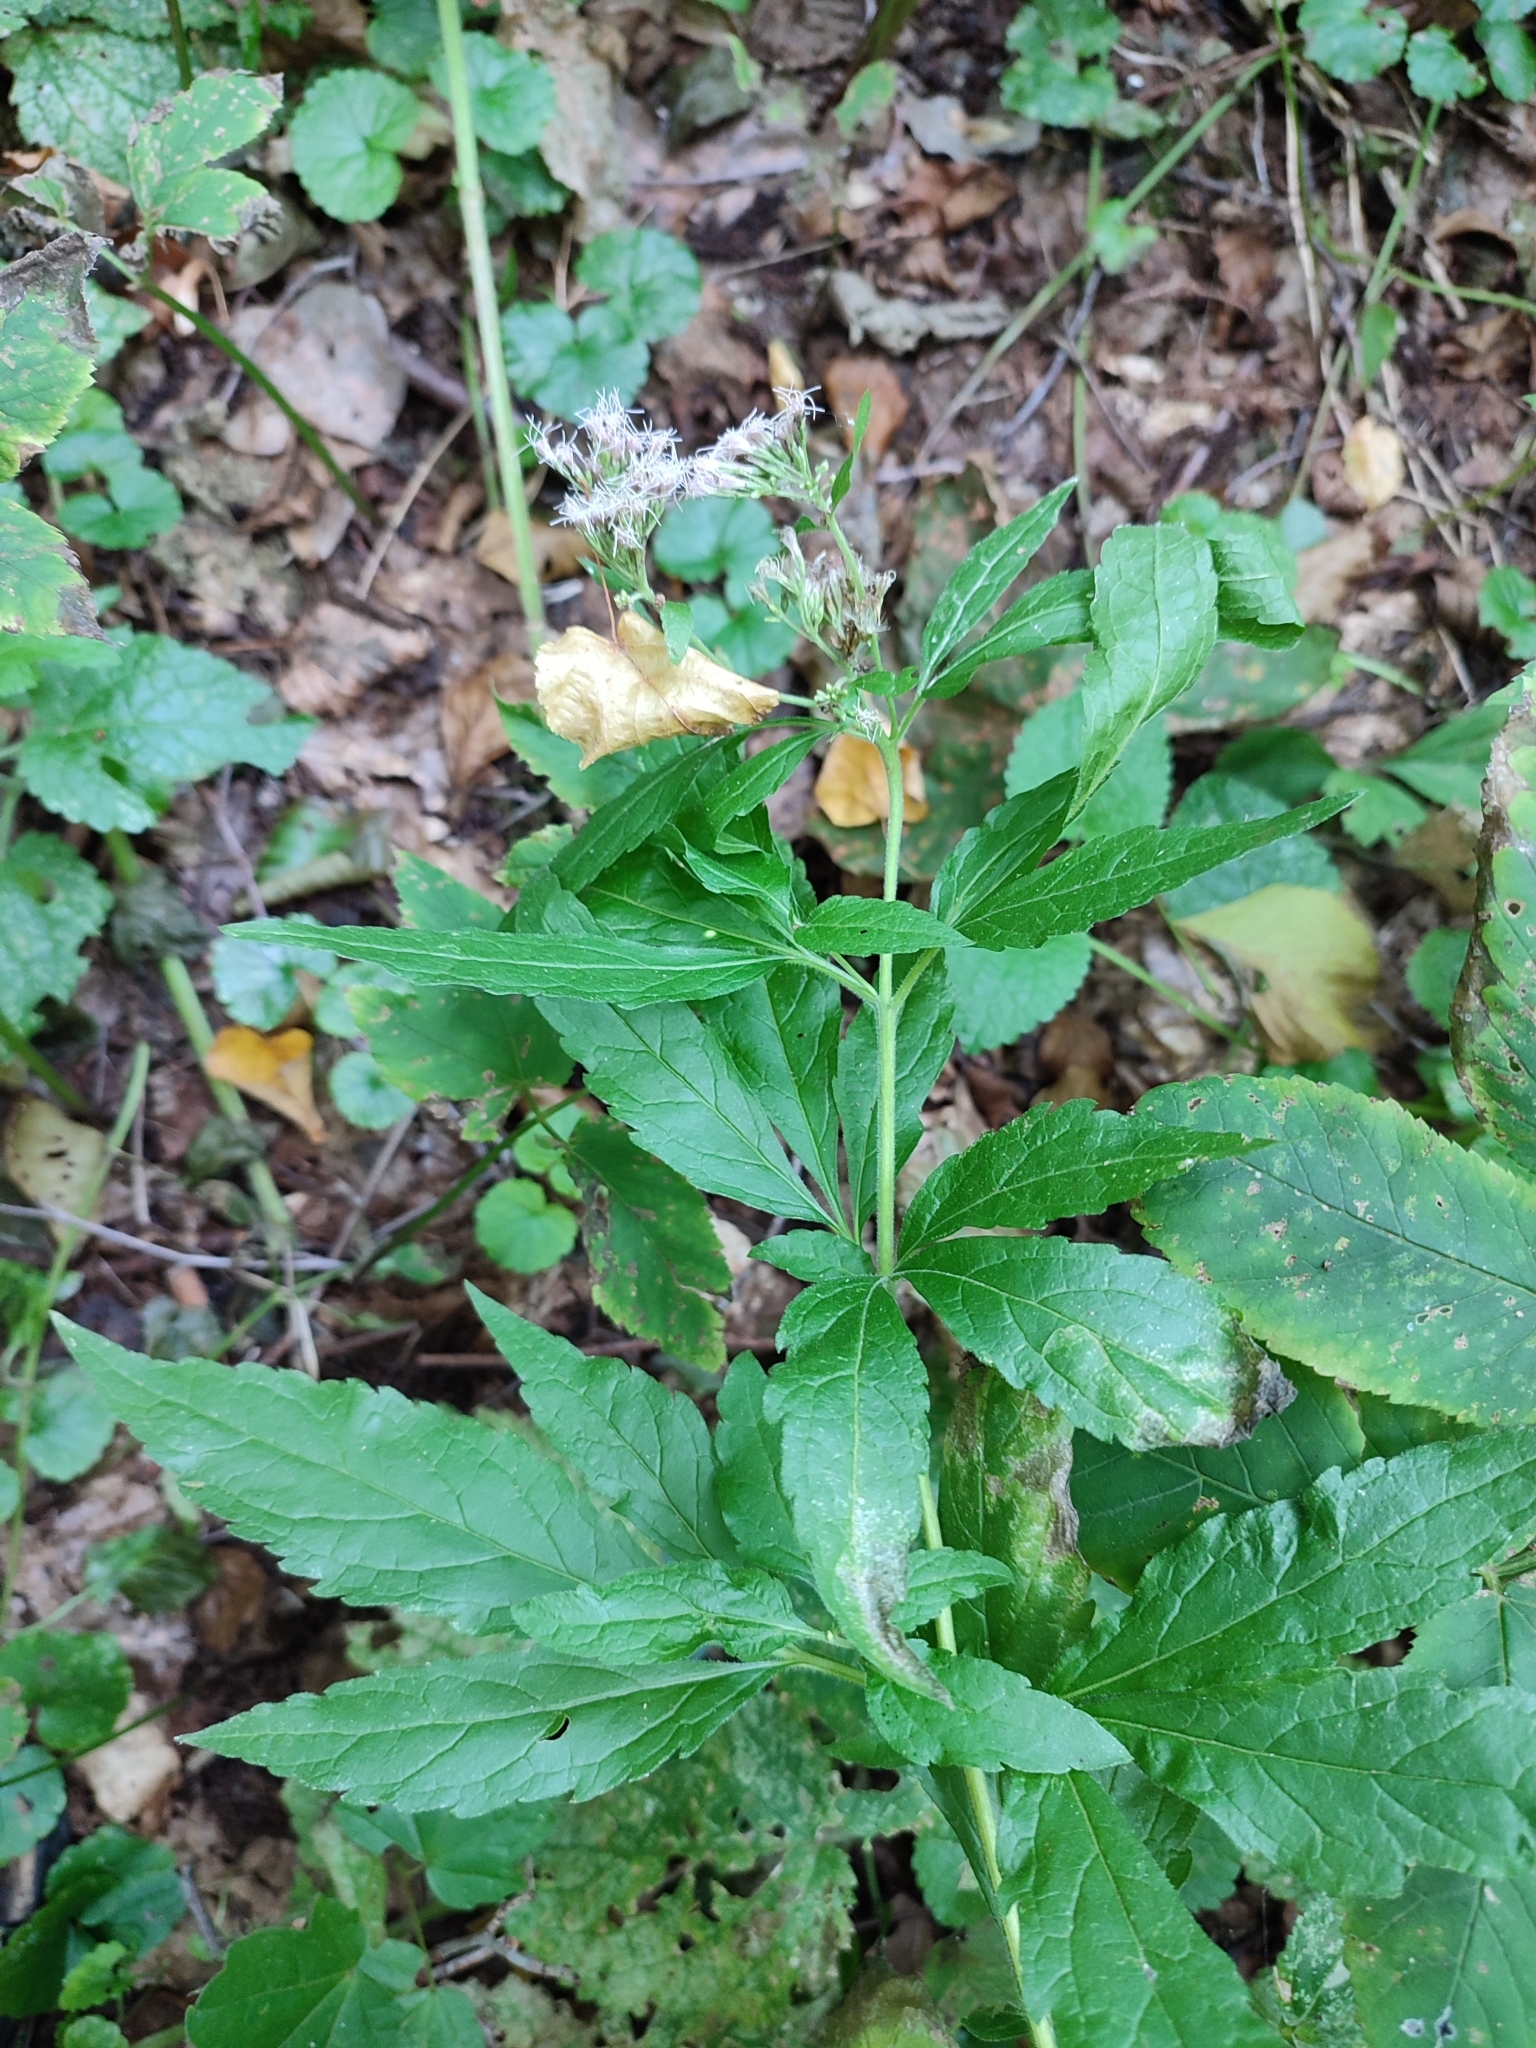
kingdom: Plantae
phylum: Tracheophyta
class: Magnoliopsida
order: Asterales
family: Asteraceae
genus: Eupatorium
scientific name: Eupatorium cannabinum
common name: Hemp-agrimony
